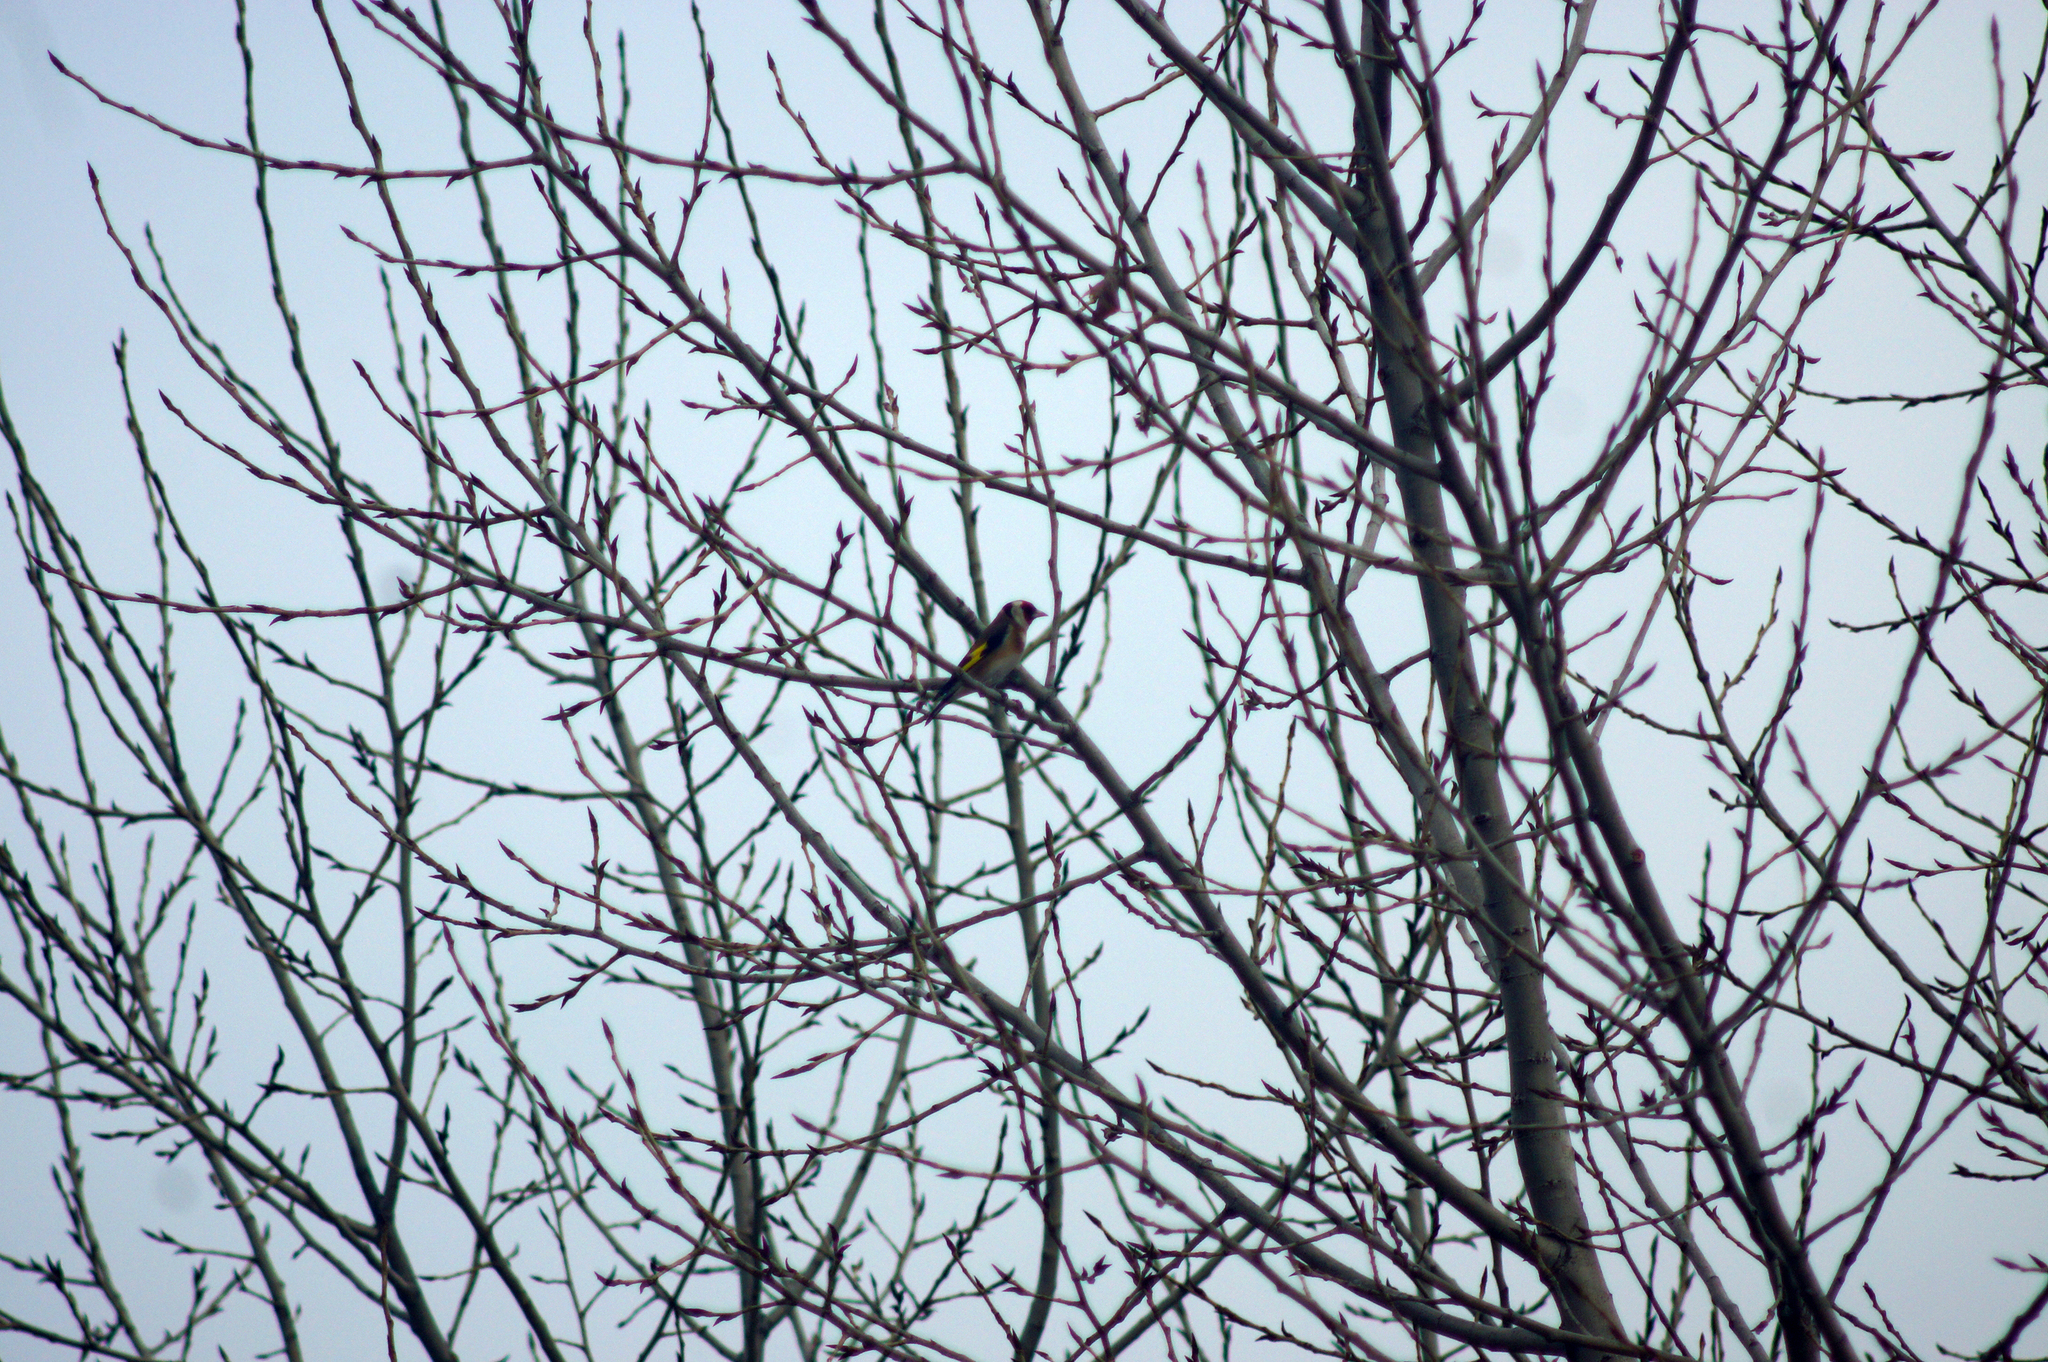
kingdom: Animalia
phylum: Chordata
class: Aves
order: Passeriformes
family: Fringillidae
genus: Carduelis
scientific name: Carduelis carduelis
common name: European goldfinch
